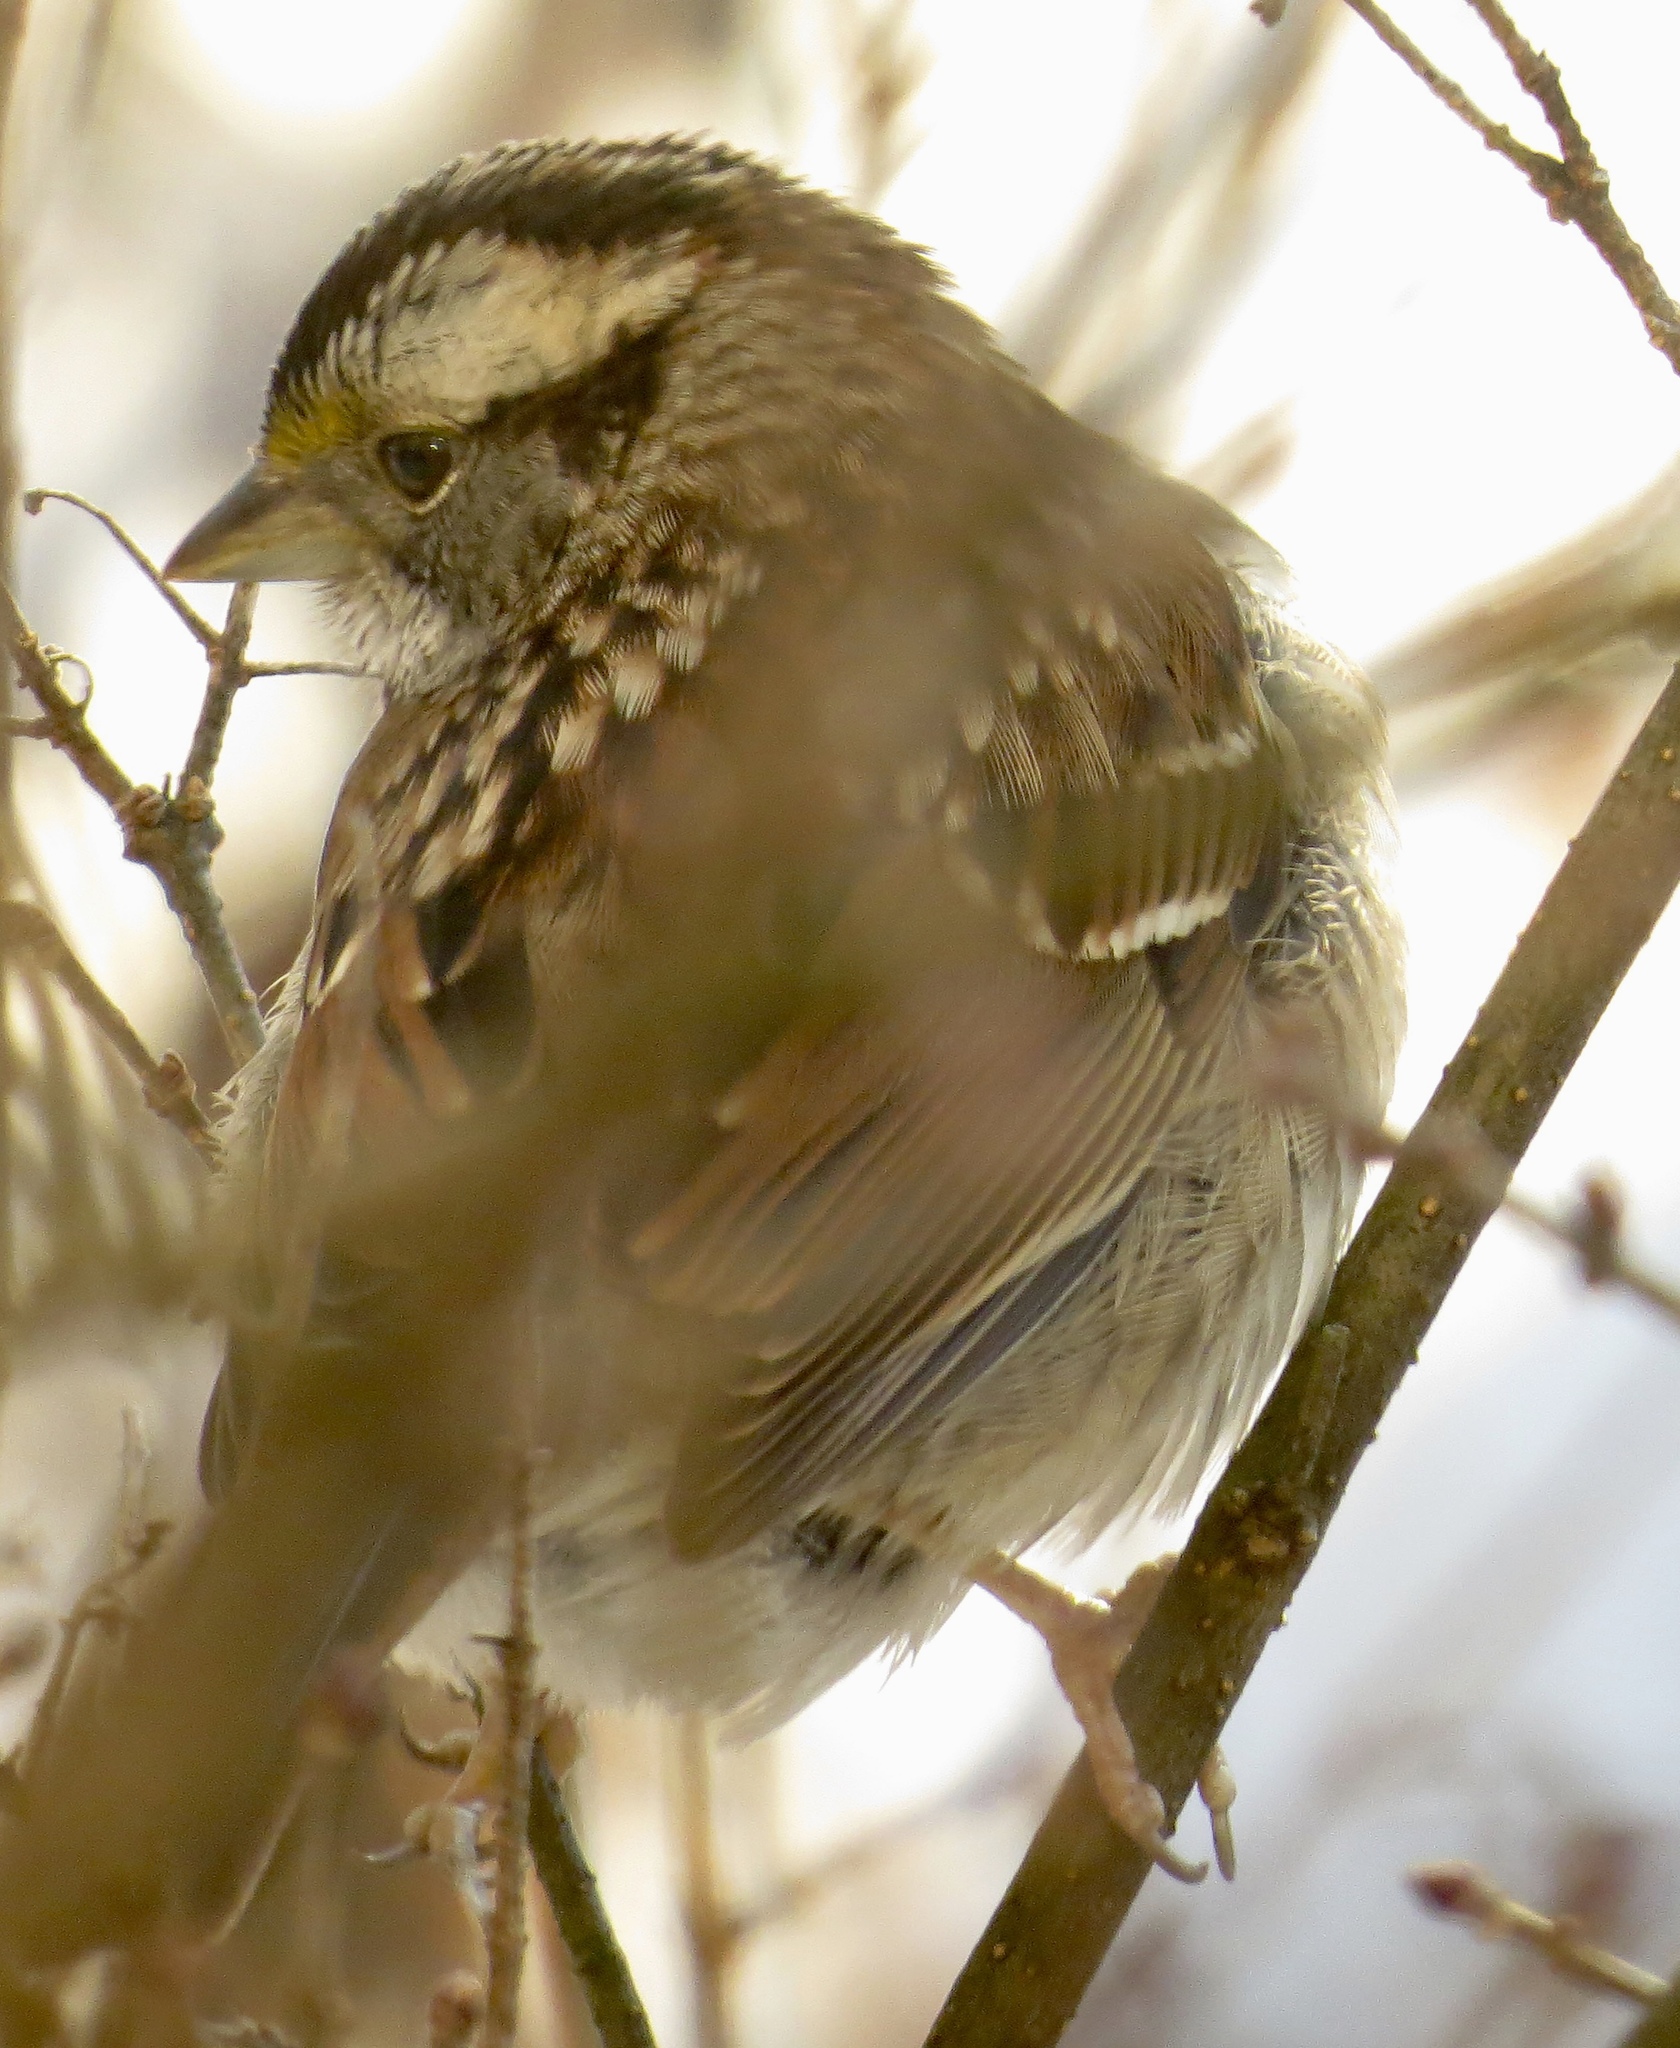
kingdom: Animalia
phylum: Chordata
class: Aves
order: Passeriformes
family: Passerellidae
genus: Zonotrichia
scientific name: Zonotrichia albicollis
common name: White-throated sparrow
